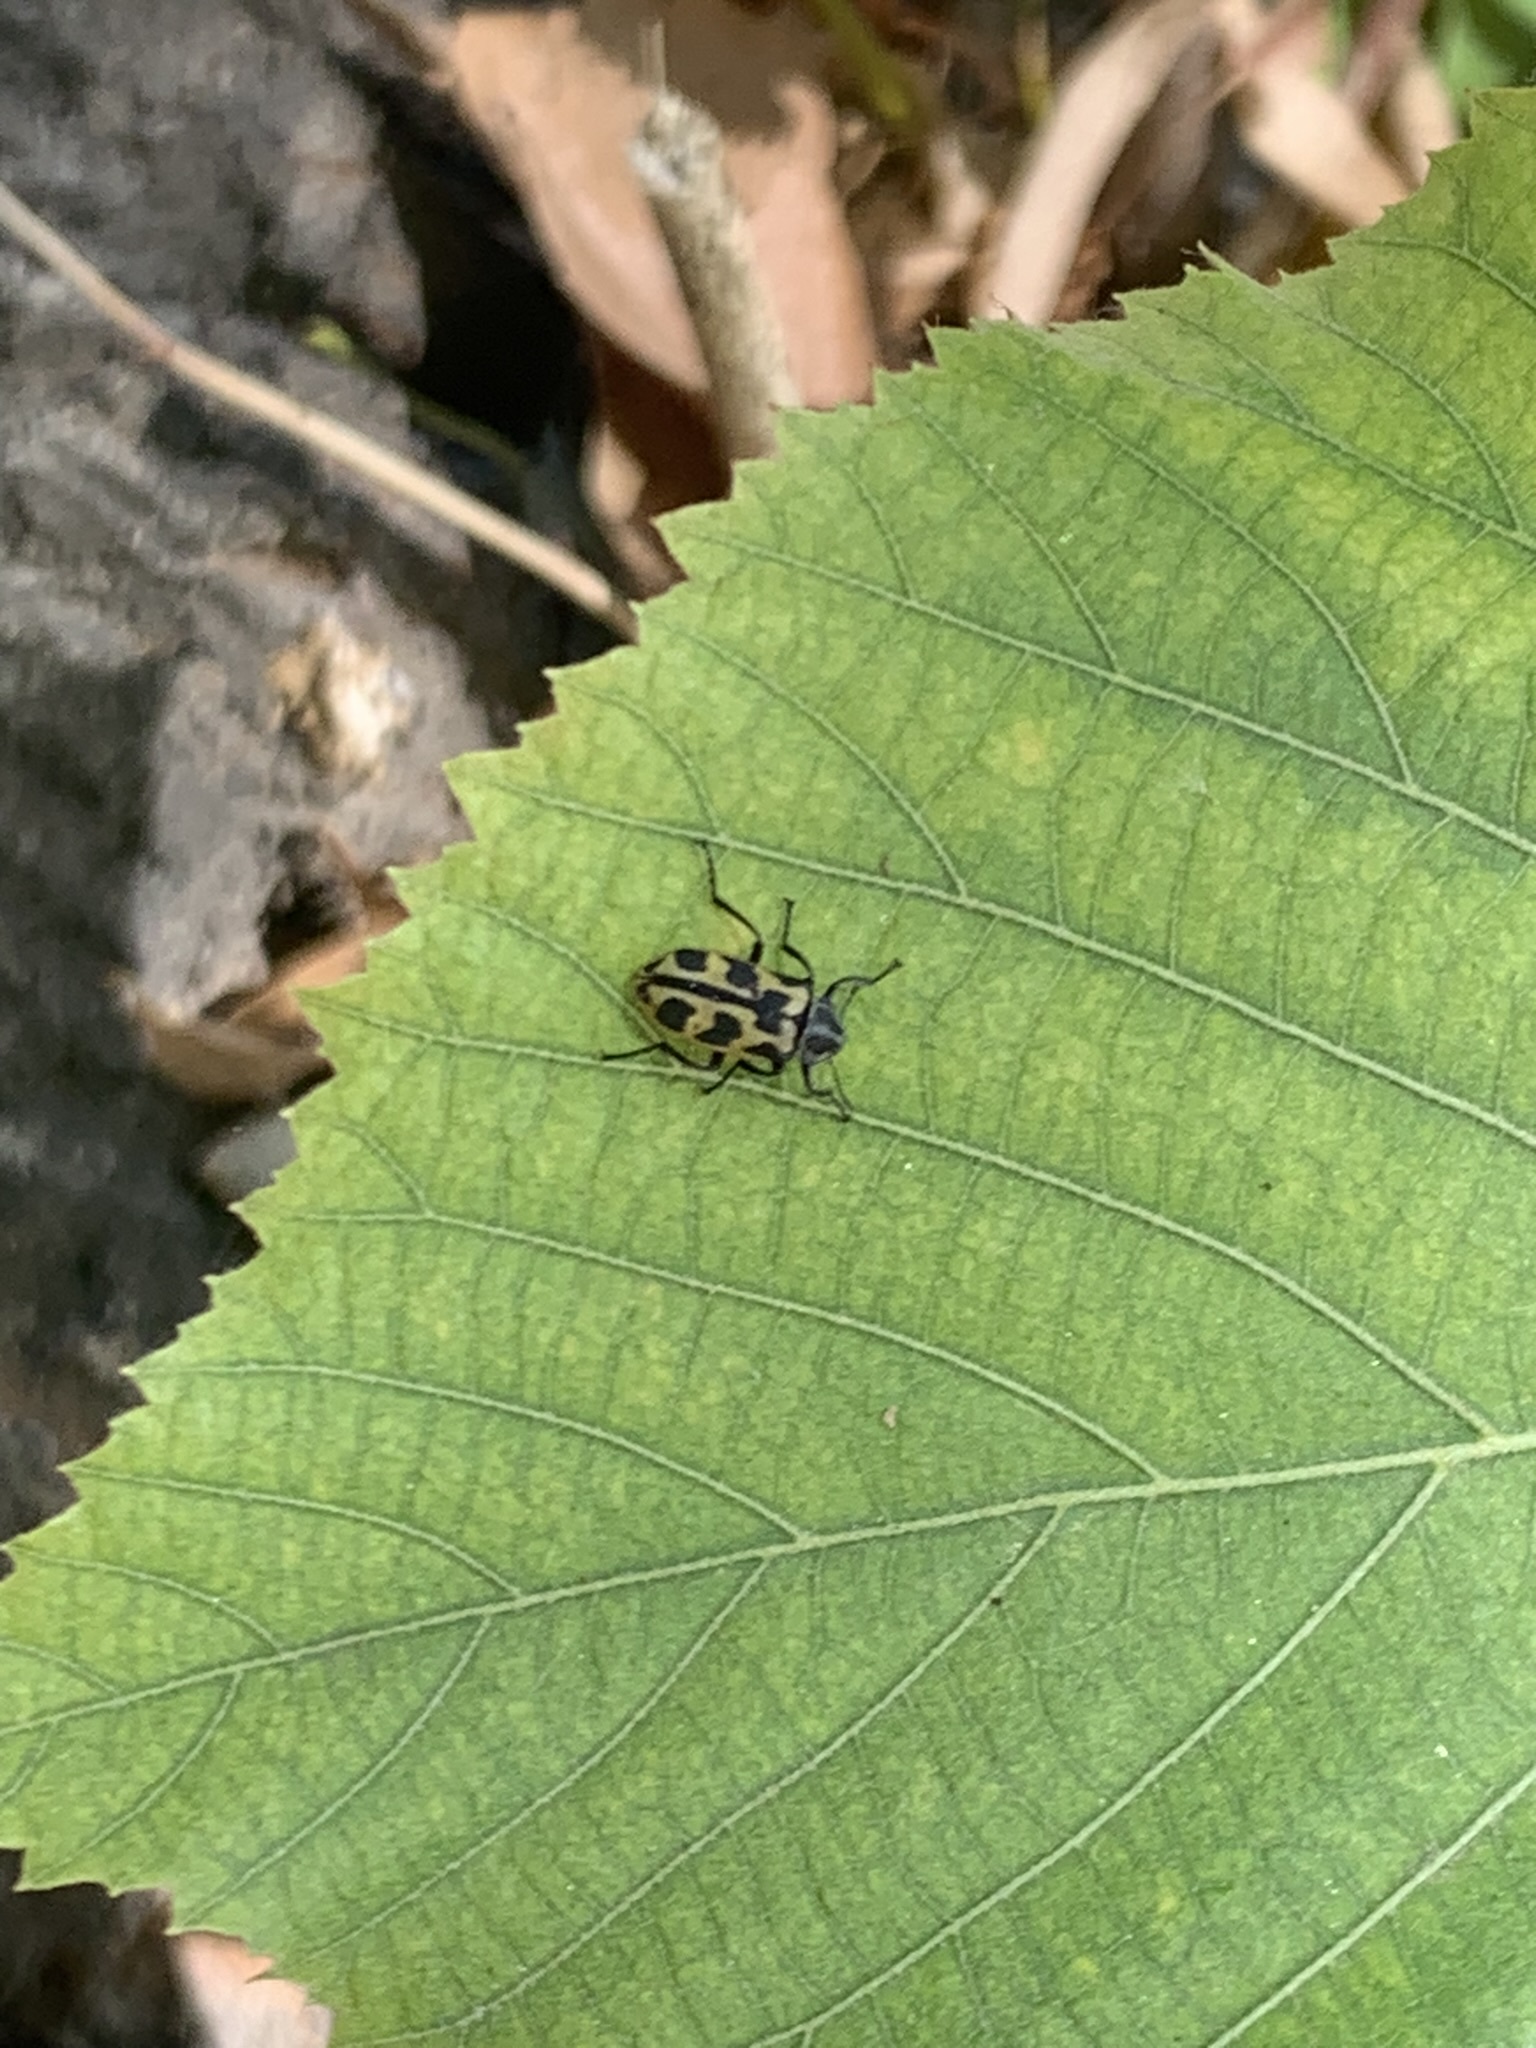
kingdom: Animalia
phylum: Arthropoda
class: Insecta
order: Coleoptera
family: Melyridae
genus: Astylus
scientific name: Astylus atromaculatus
